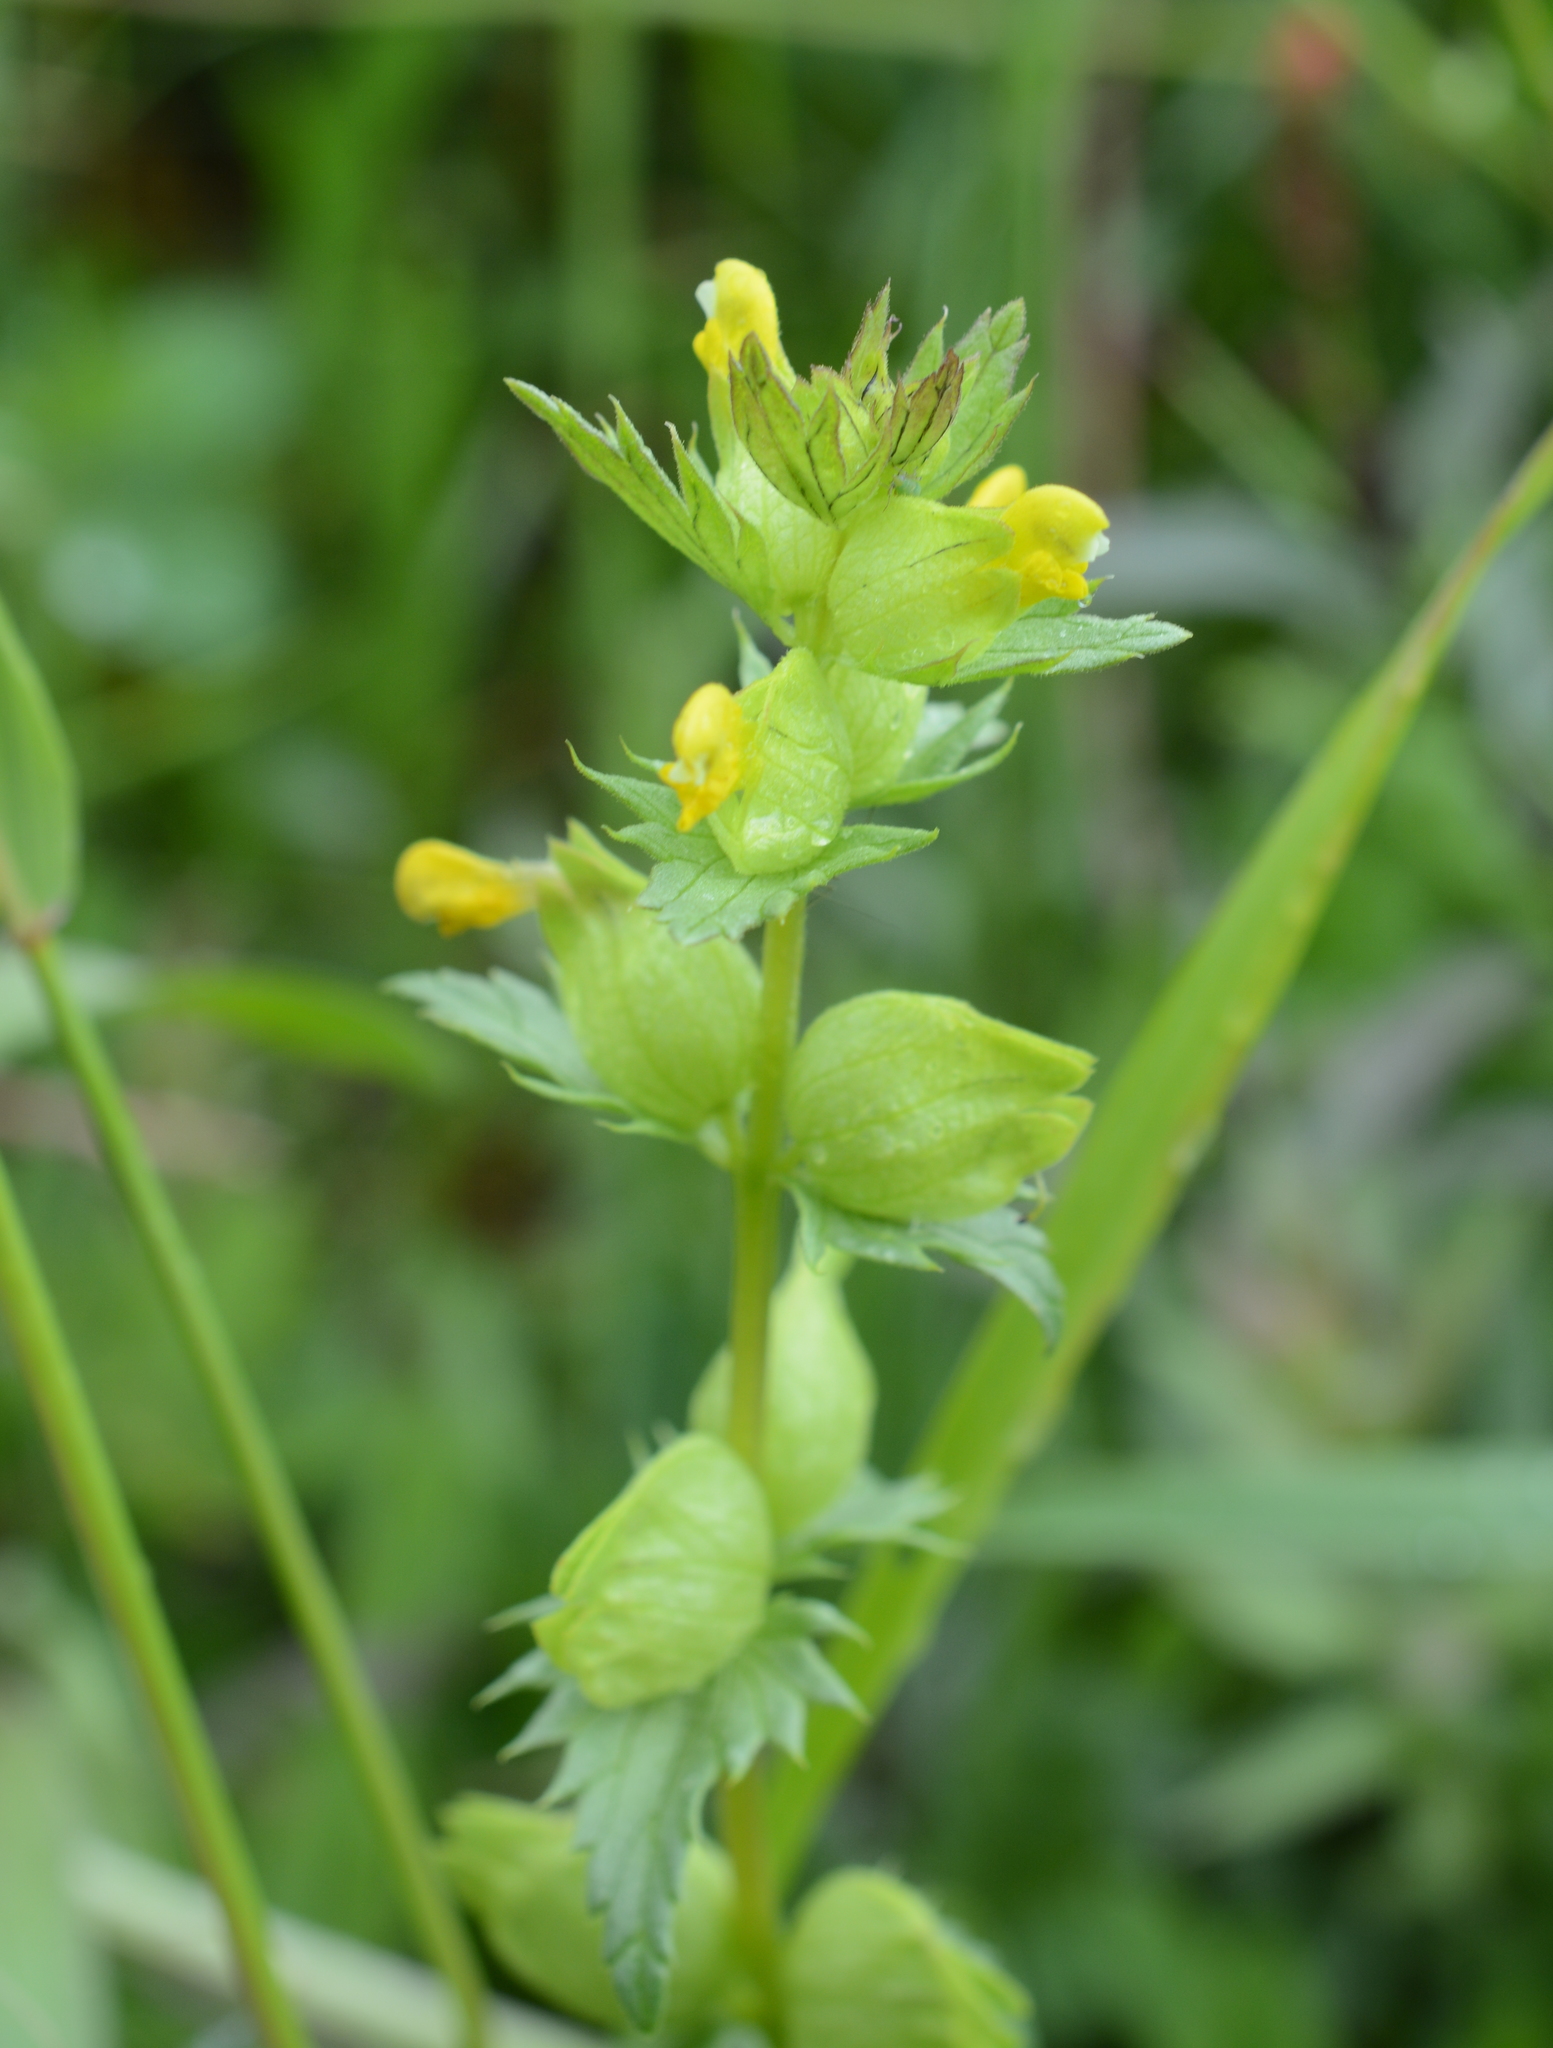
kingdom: Plantae
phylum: Tracheophyta
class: Magnoliopsida
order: Lamiales
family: Orobanchaceae
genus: Rhinanthus
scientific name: Rhinanthus groenlandicus
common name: Little yellow rattle
